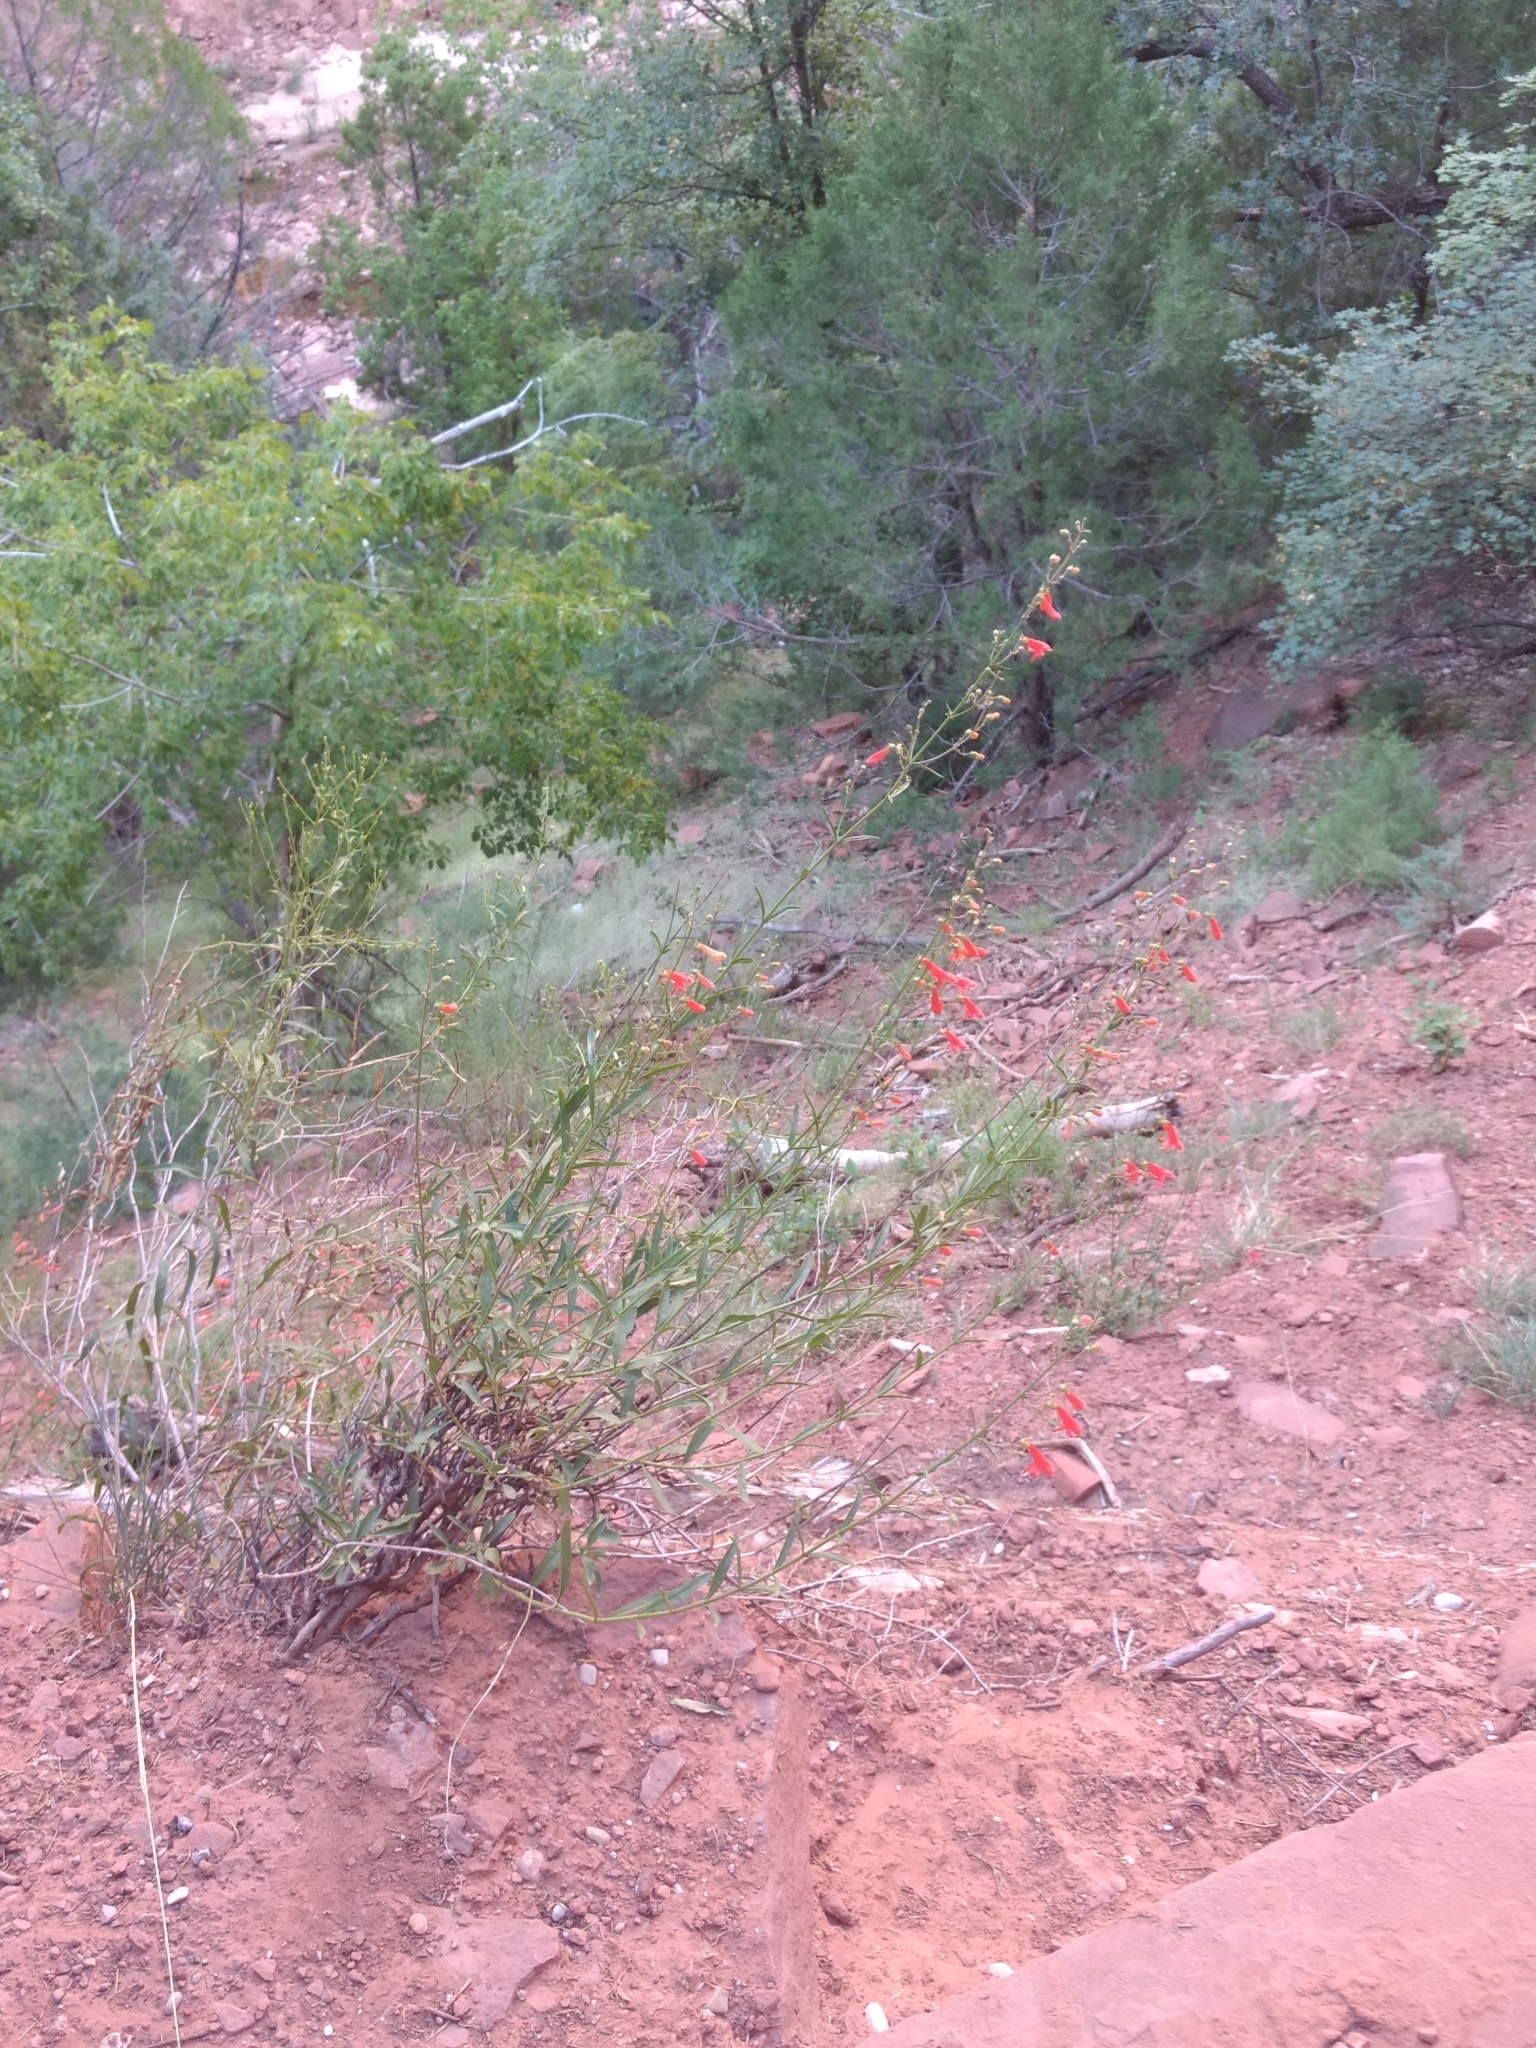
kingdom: Plantae
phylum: Tracheophyta
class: Magnoliopsida
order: Lamiales
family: Plantaginaceae
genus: Penstemon
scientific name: Penstemon rostriflorus
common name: Bridges's penstemon
